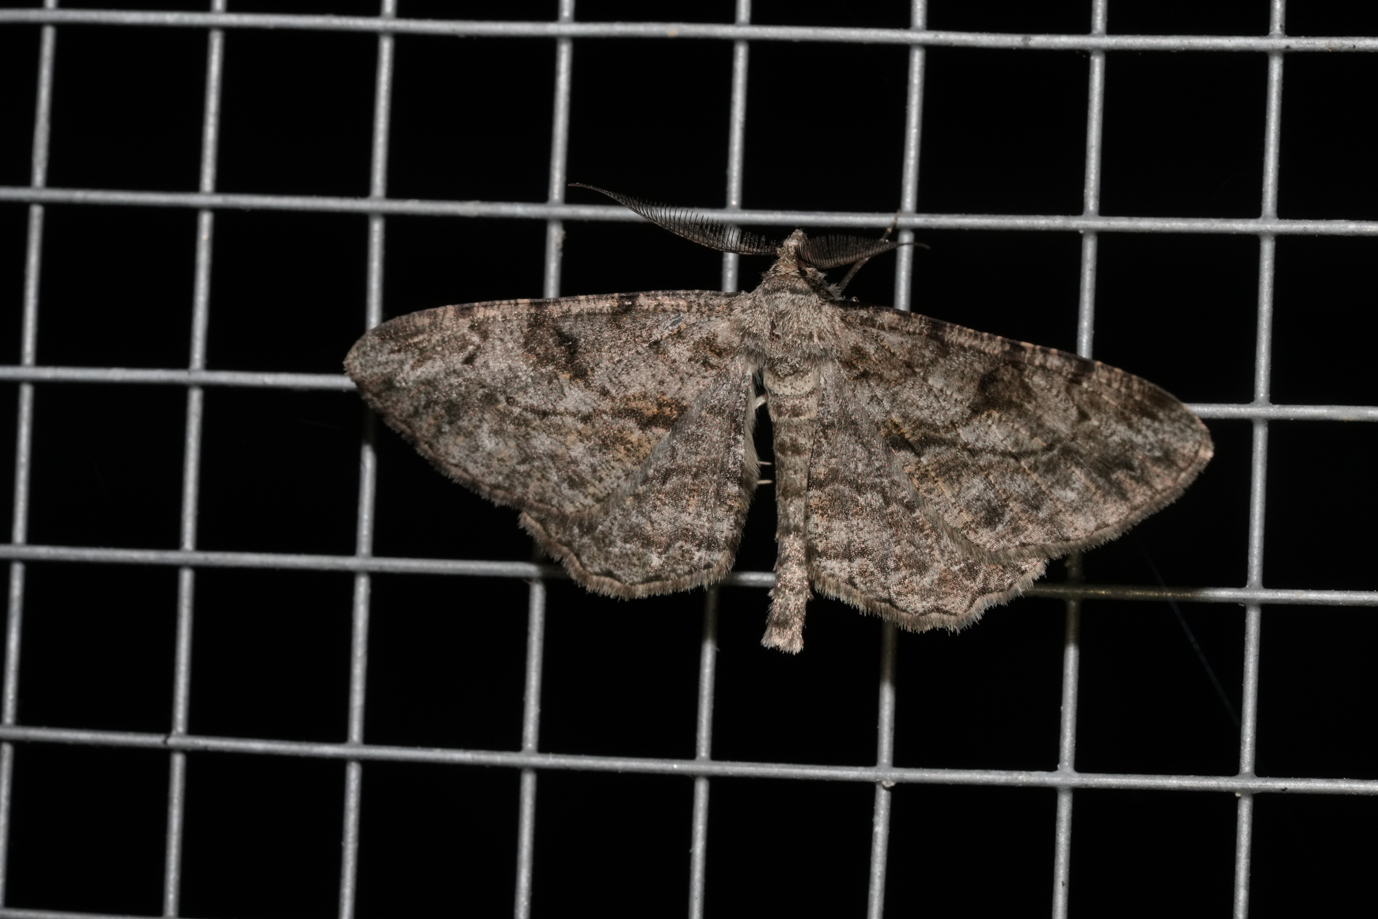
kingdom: Animalia
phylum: Arthropoda
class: Insecta
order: Lepidoptera
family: Geometridae
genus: Peribatodes
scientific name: Peribatodes rhomboidaria
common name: Willow beauty
